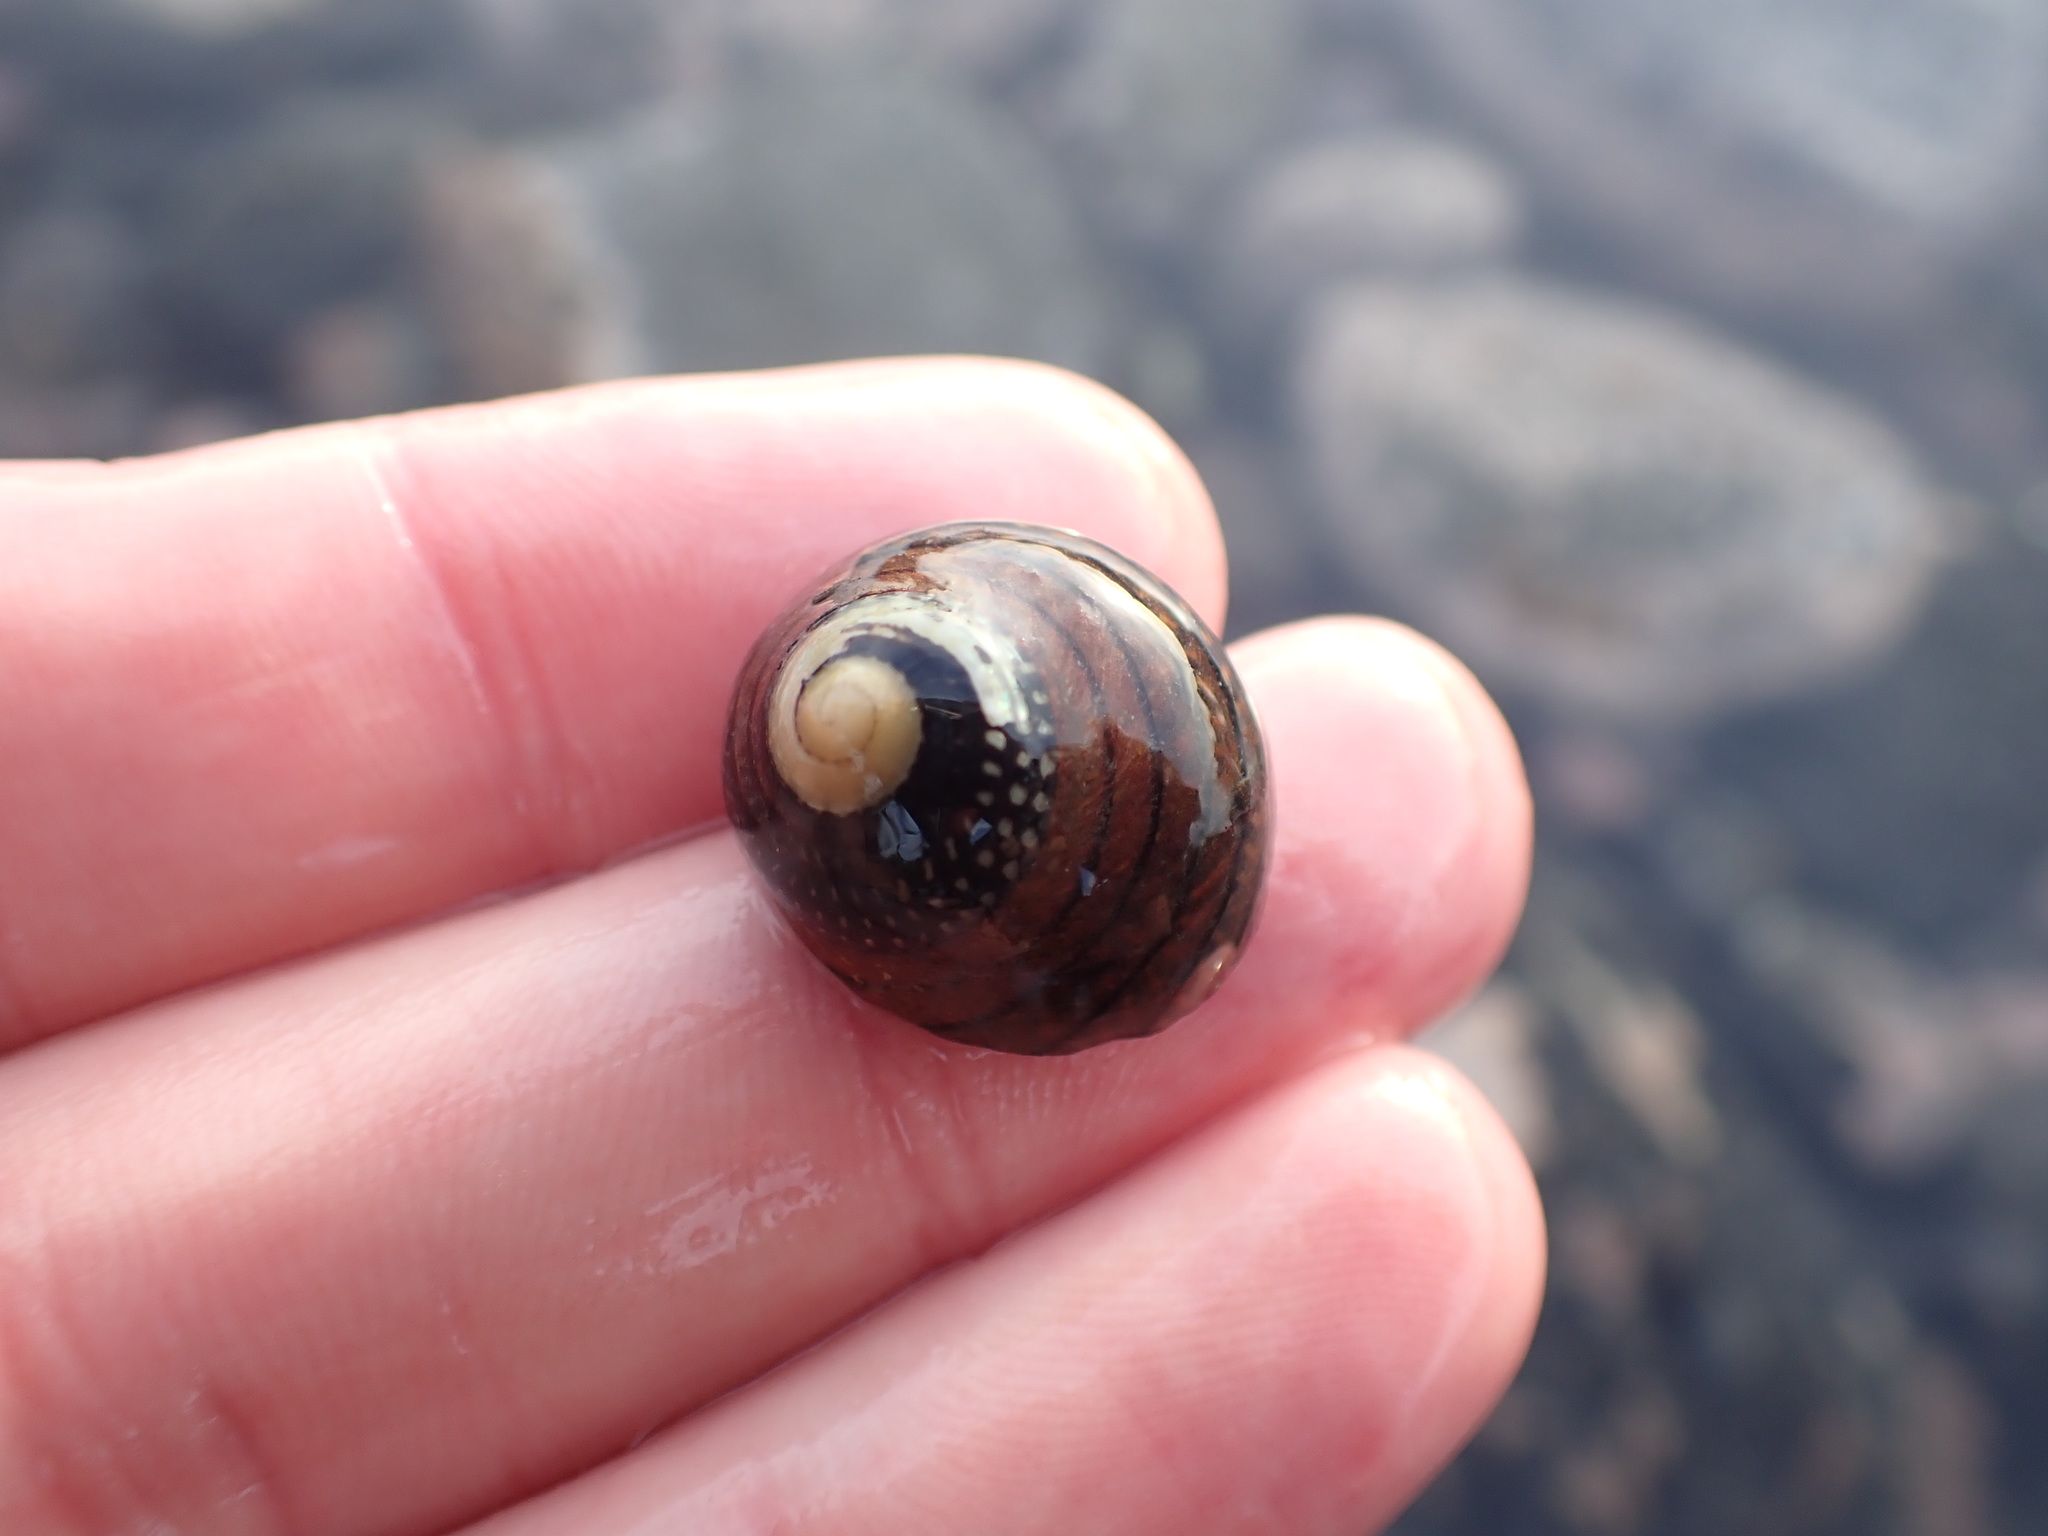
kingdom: Animalia
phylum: Mollusca
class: Gastropoda
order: Trochida
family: Trochidae
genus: Diloma
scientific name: Diloma aethiops
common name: Scorched monodont
